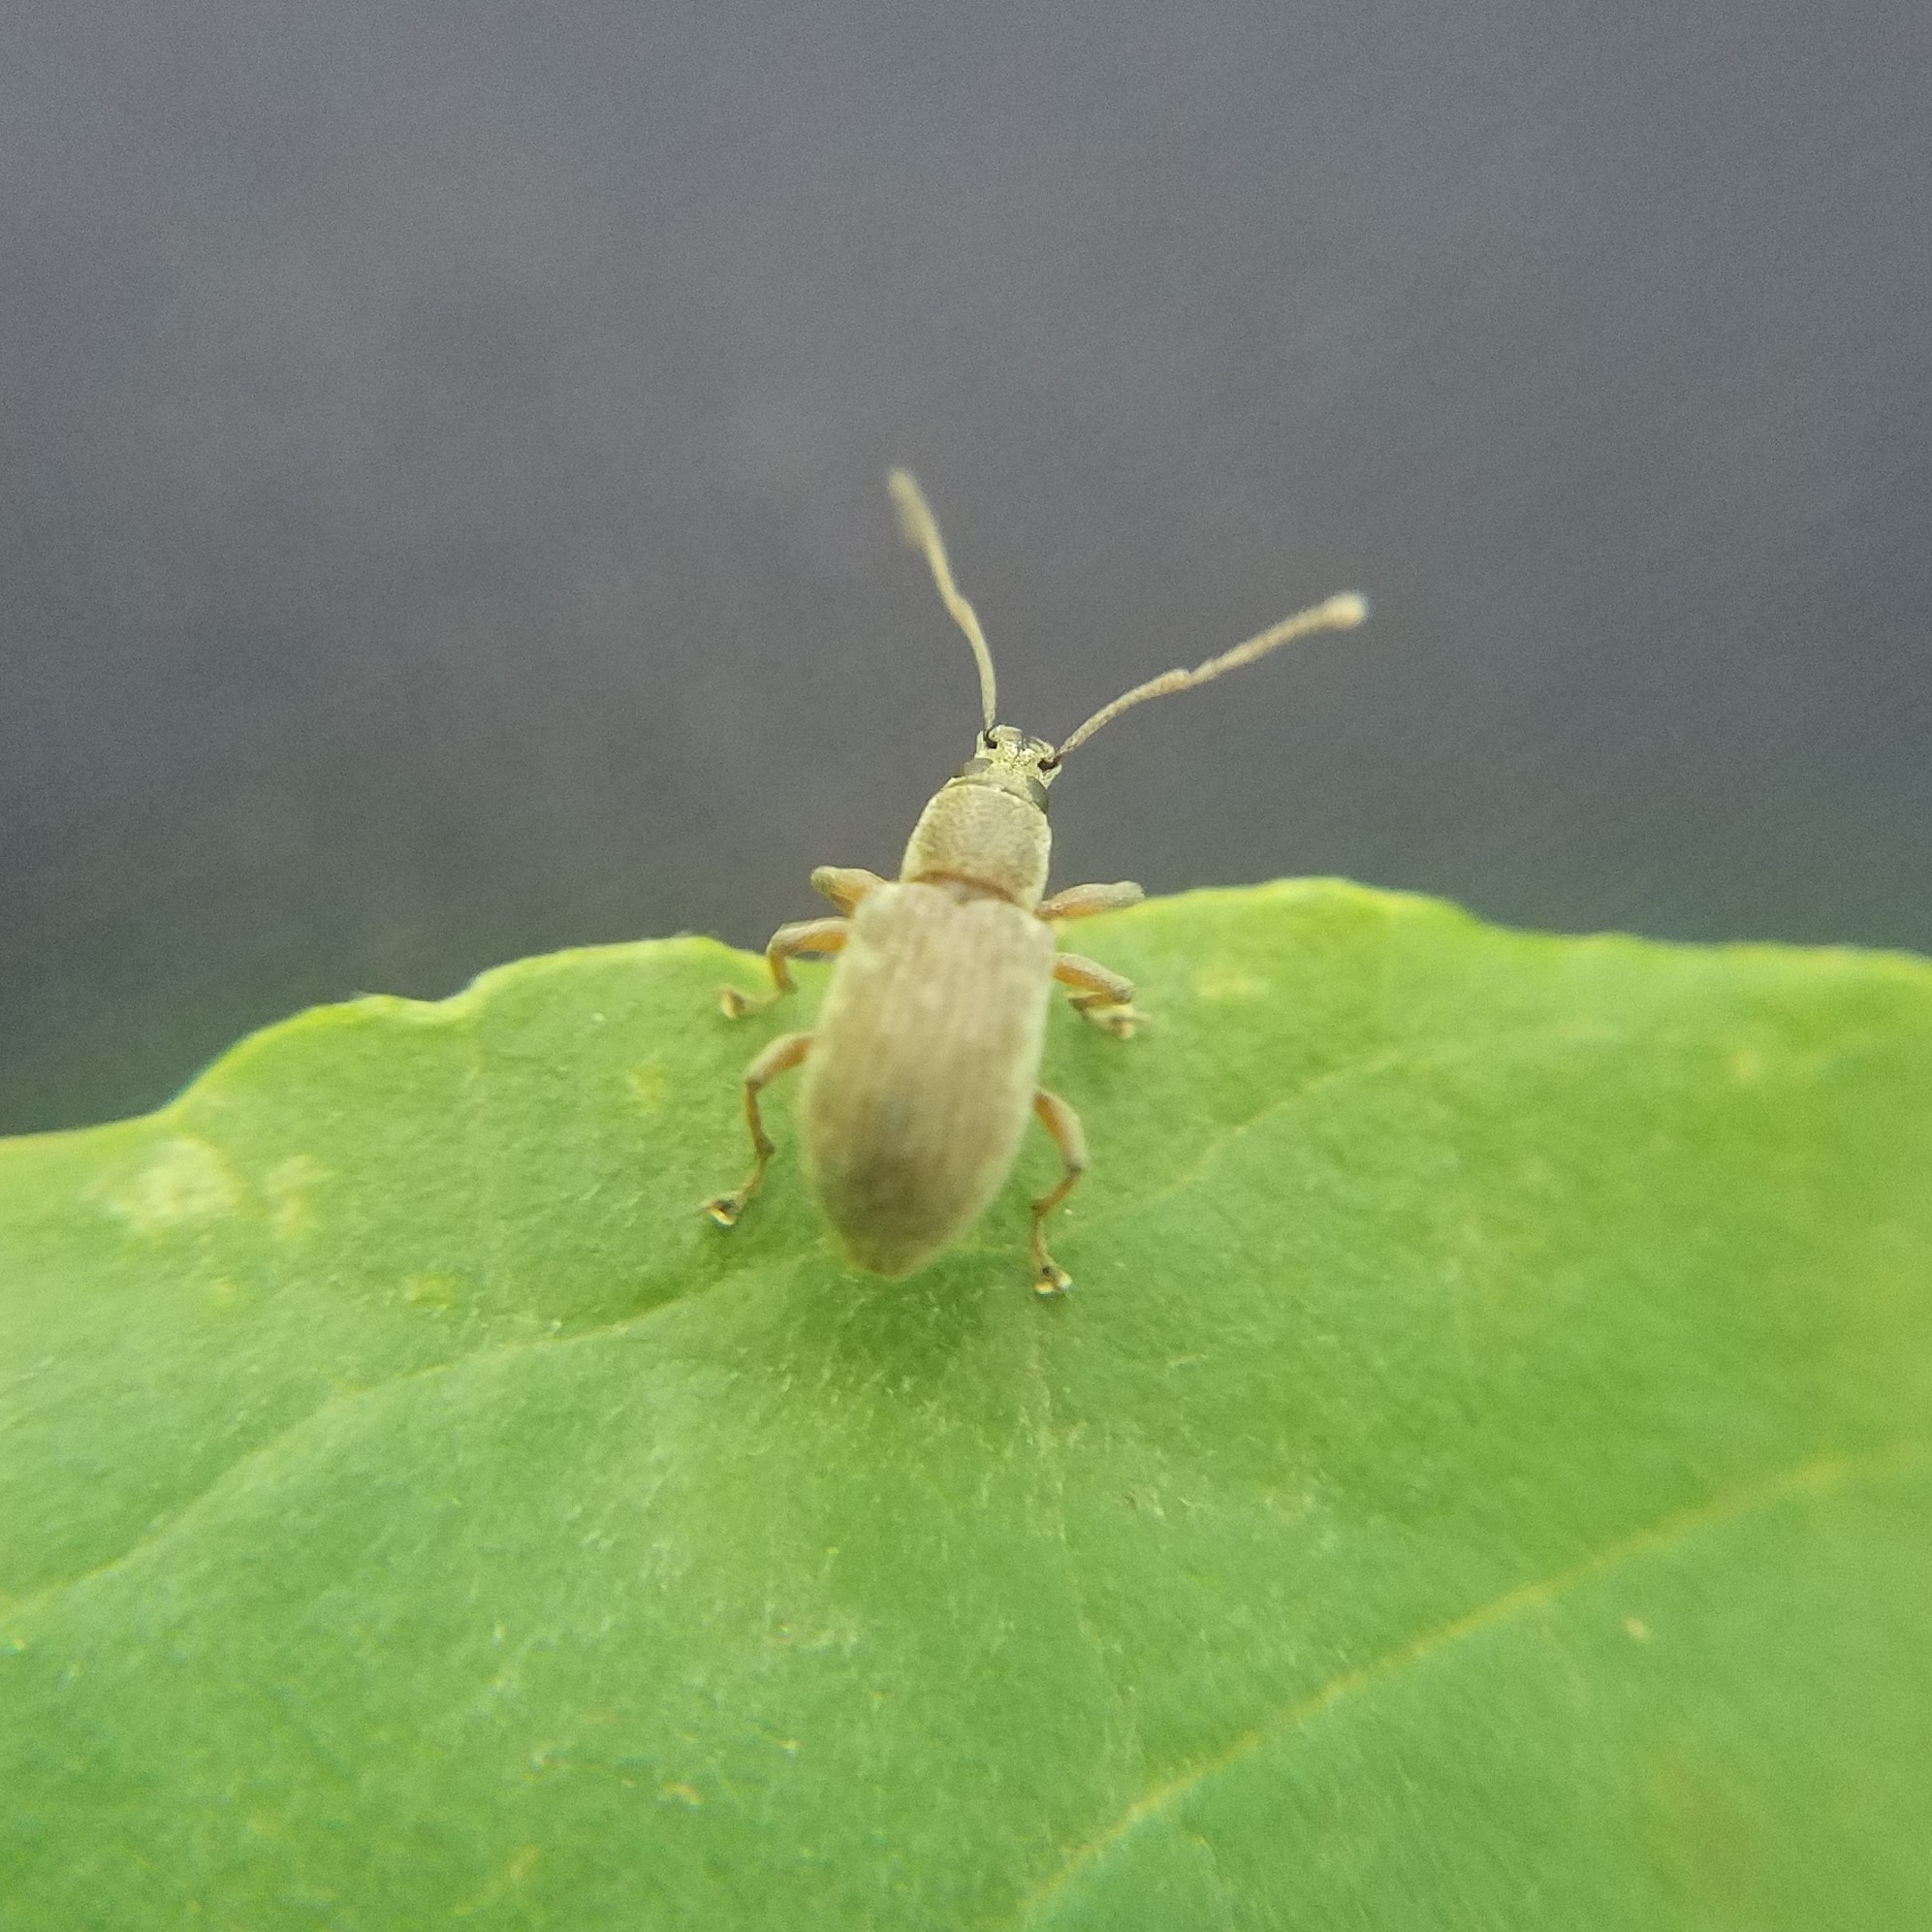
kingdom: Animalia
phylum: Arthropoda
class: Insecta
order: Coleoptera
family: Curculionidae
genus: Cyrtepistomus
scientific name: Cyrtepistomus castaneus
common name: Weevil
